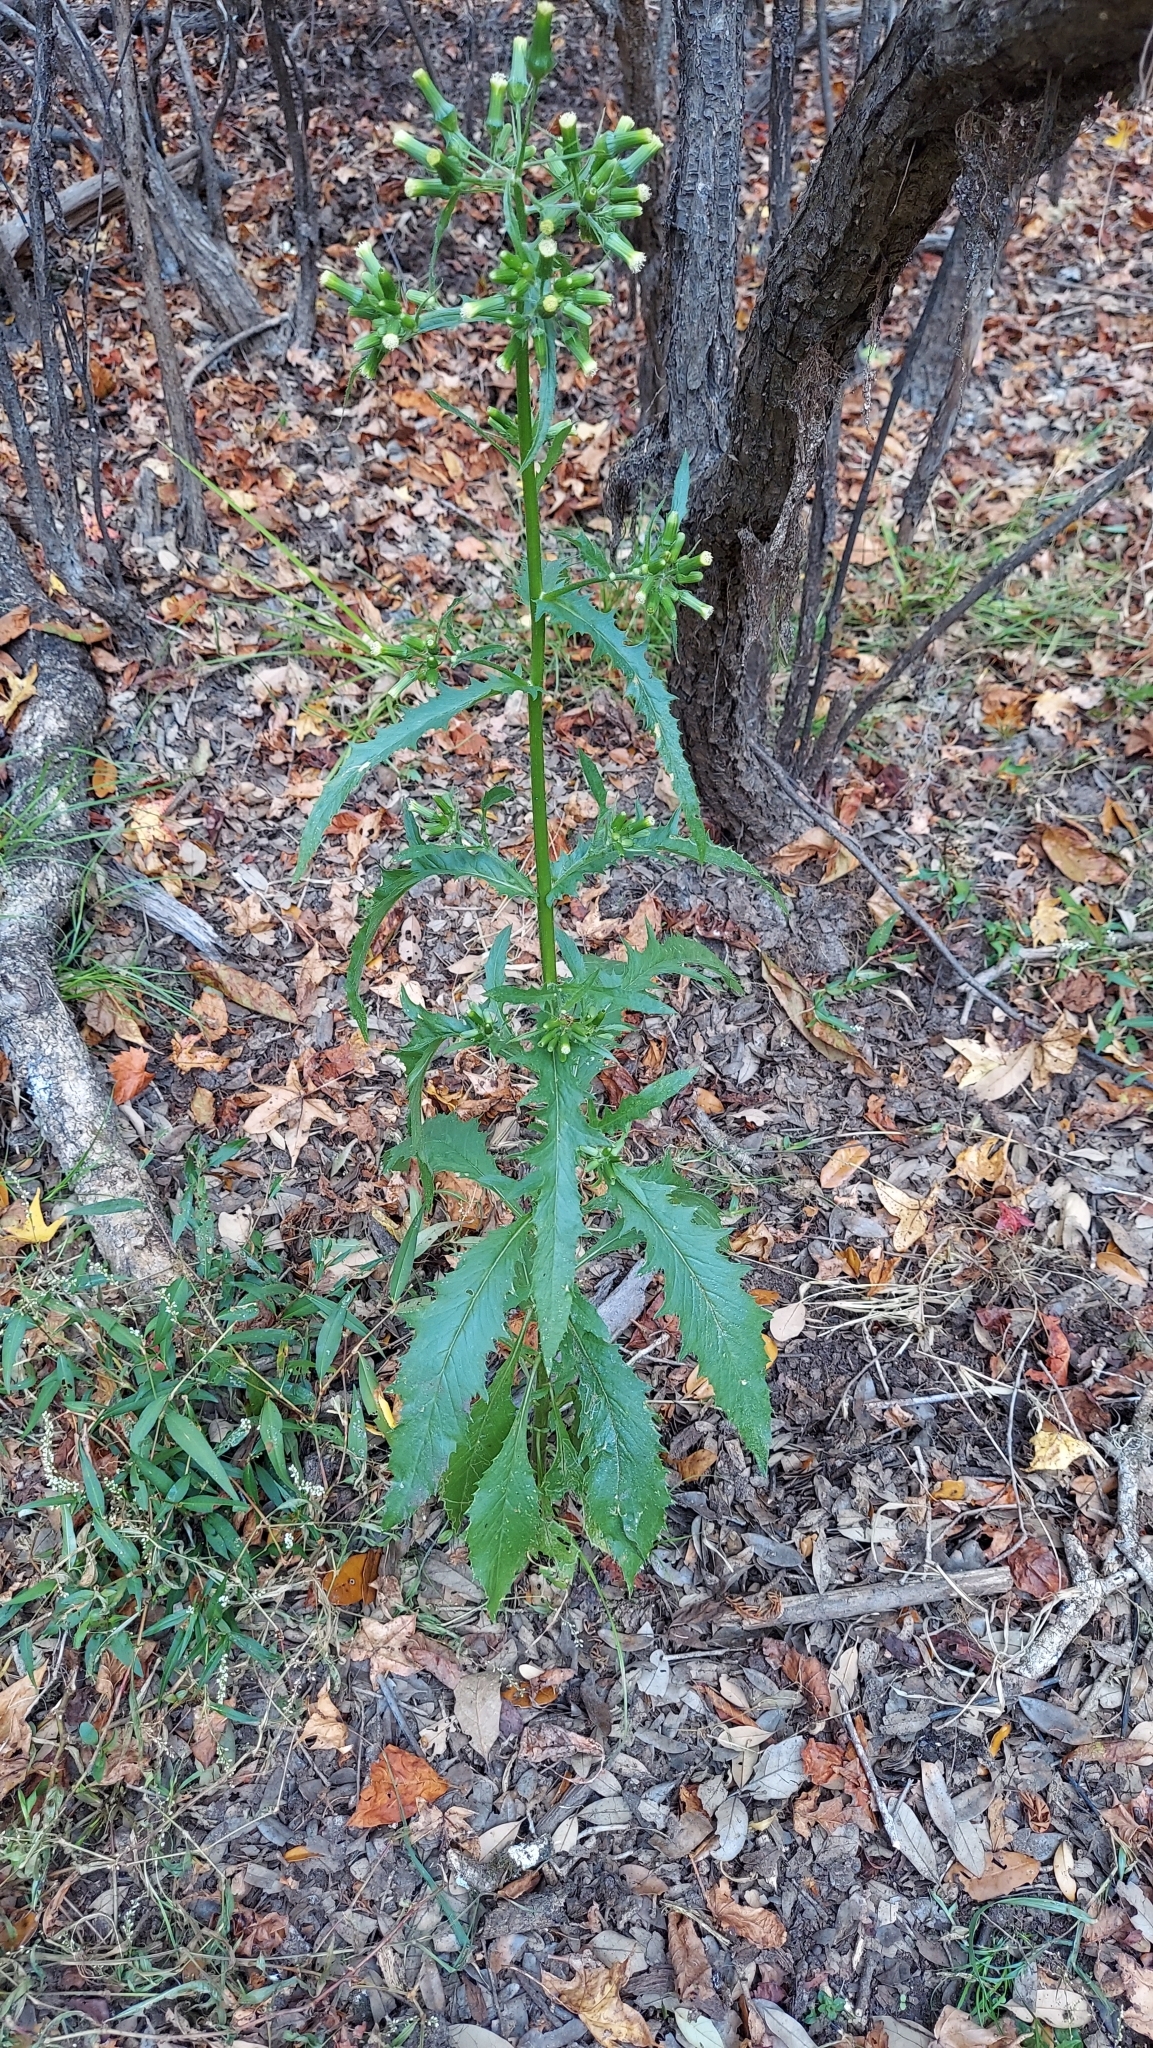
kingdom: Plantae
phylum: Tracheophyta
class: Magnoliopsida
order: Asterales
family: Asteraceae
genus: Erechtites
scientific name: Erechtites hieraciifolius
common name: American burnweed
